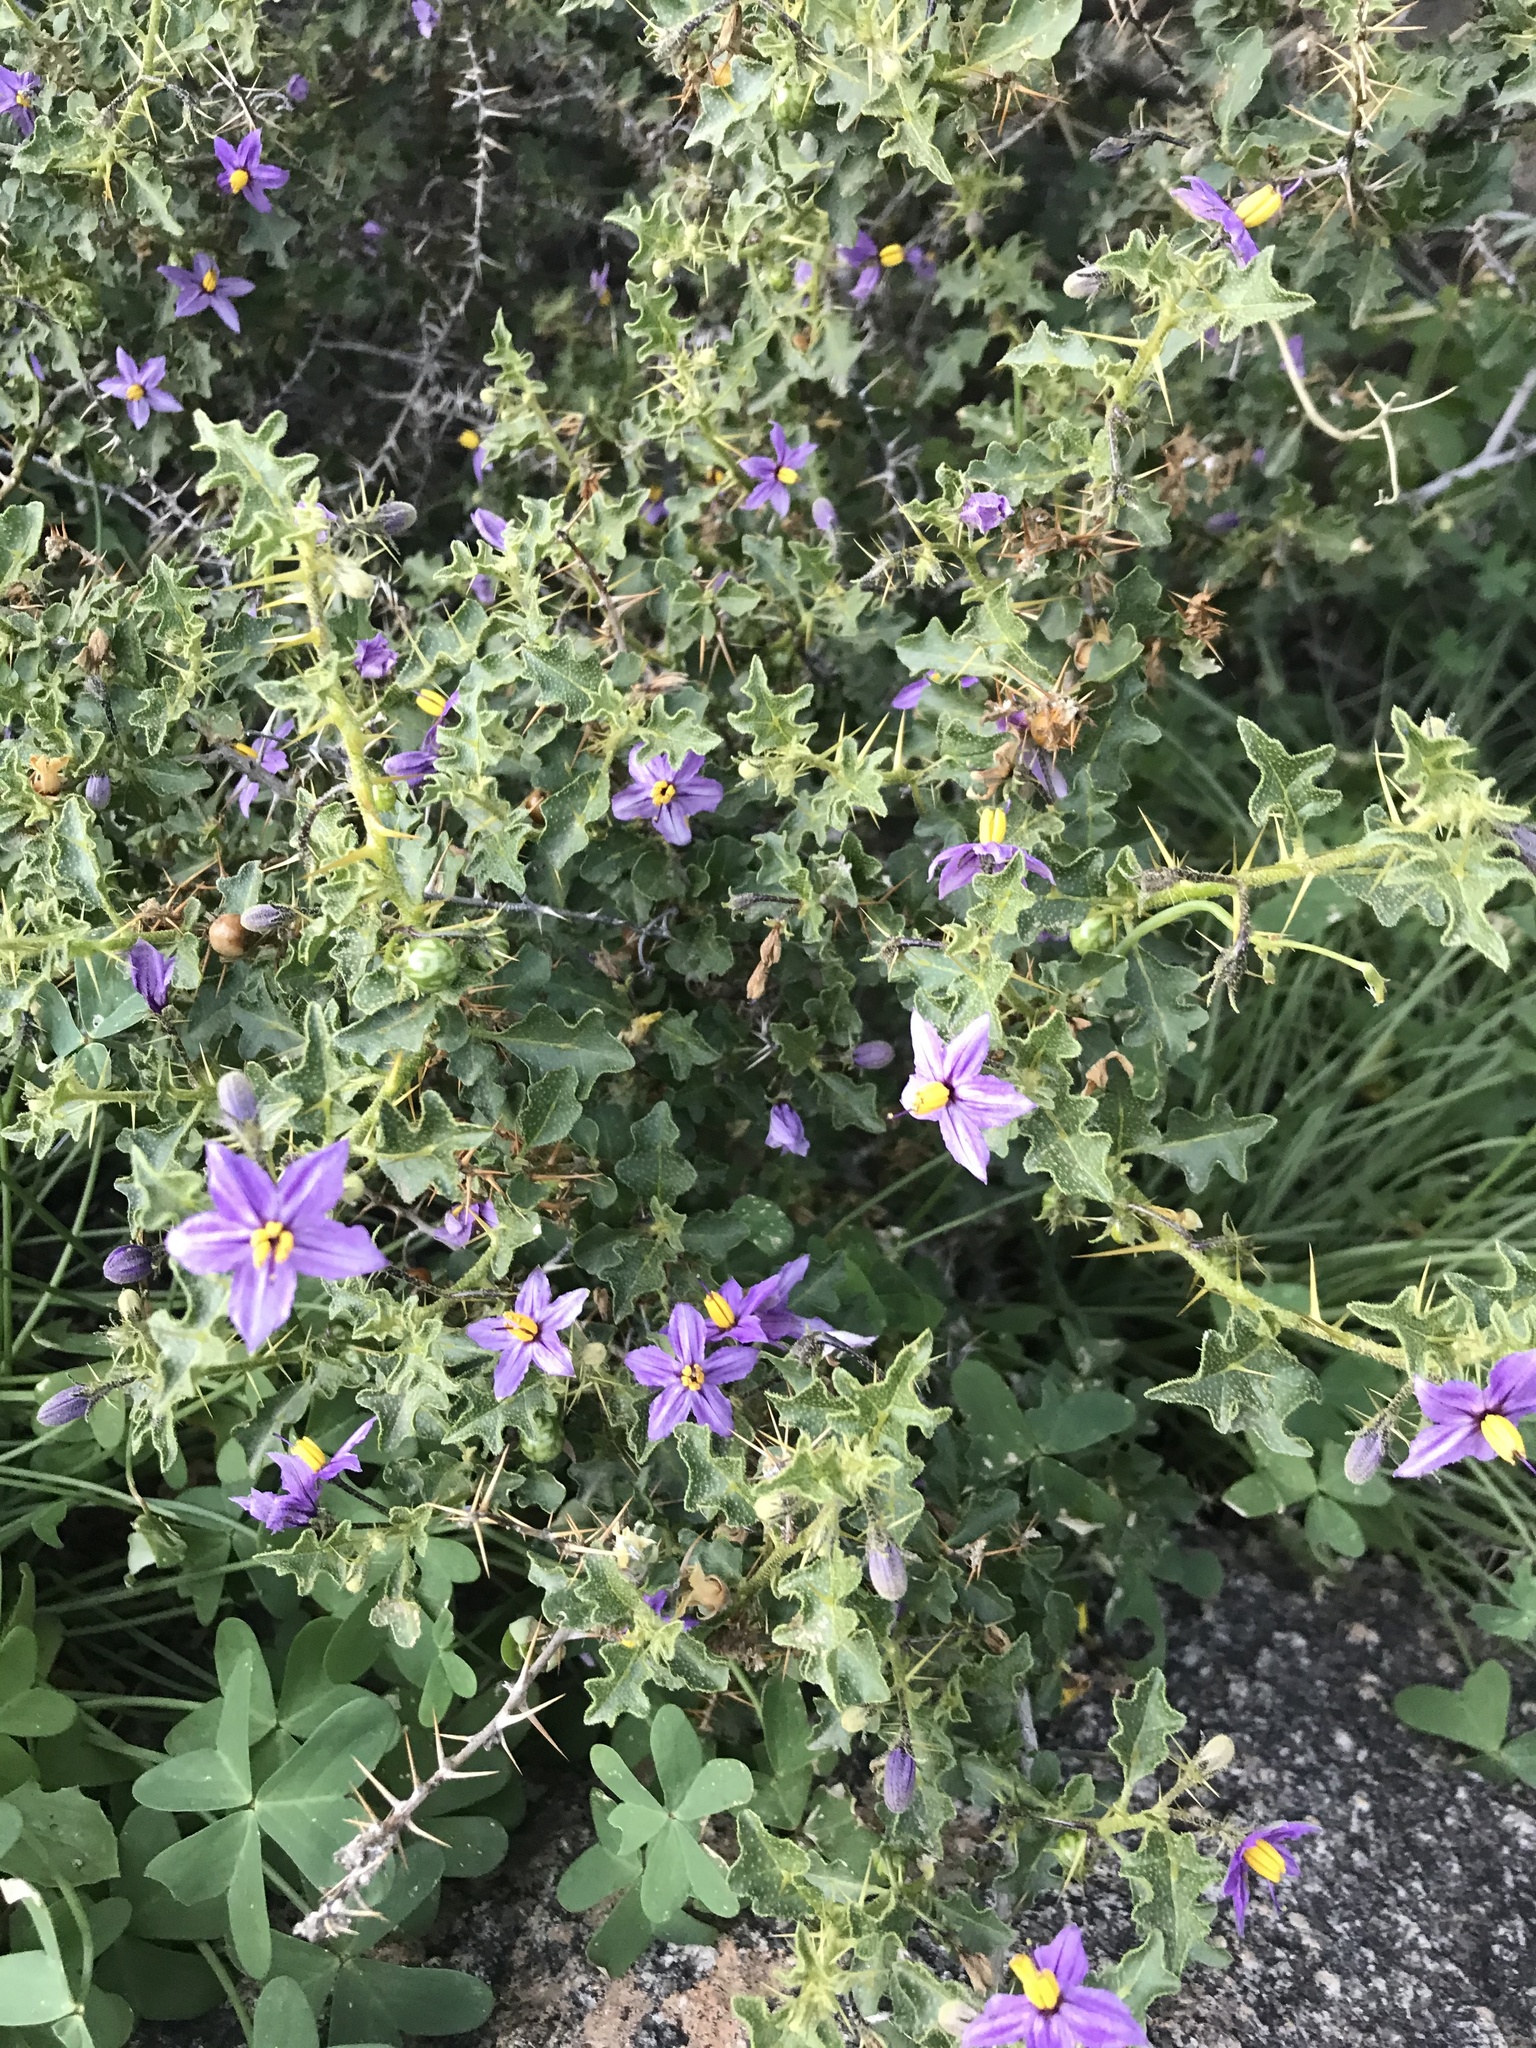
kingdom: Plantae
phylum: Tracheophyta
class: Magnoliopsida
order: Solanales
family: Solanaceae
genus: Solanum
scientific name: Solanum humile
